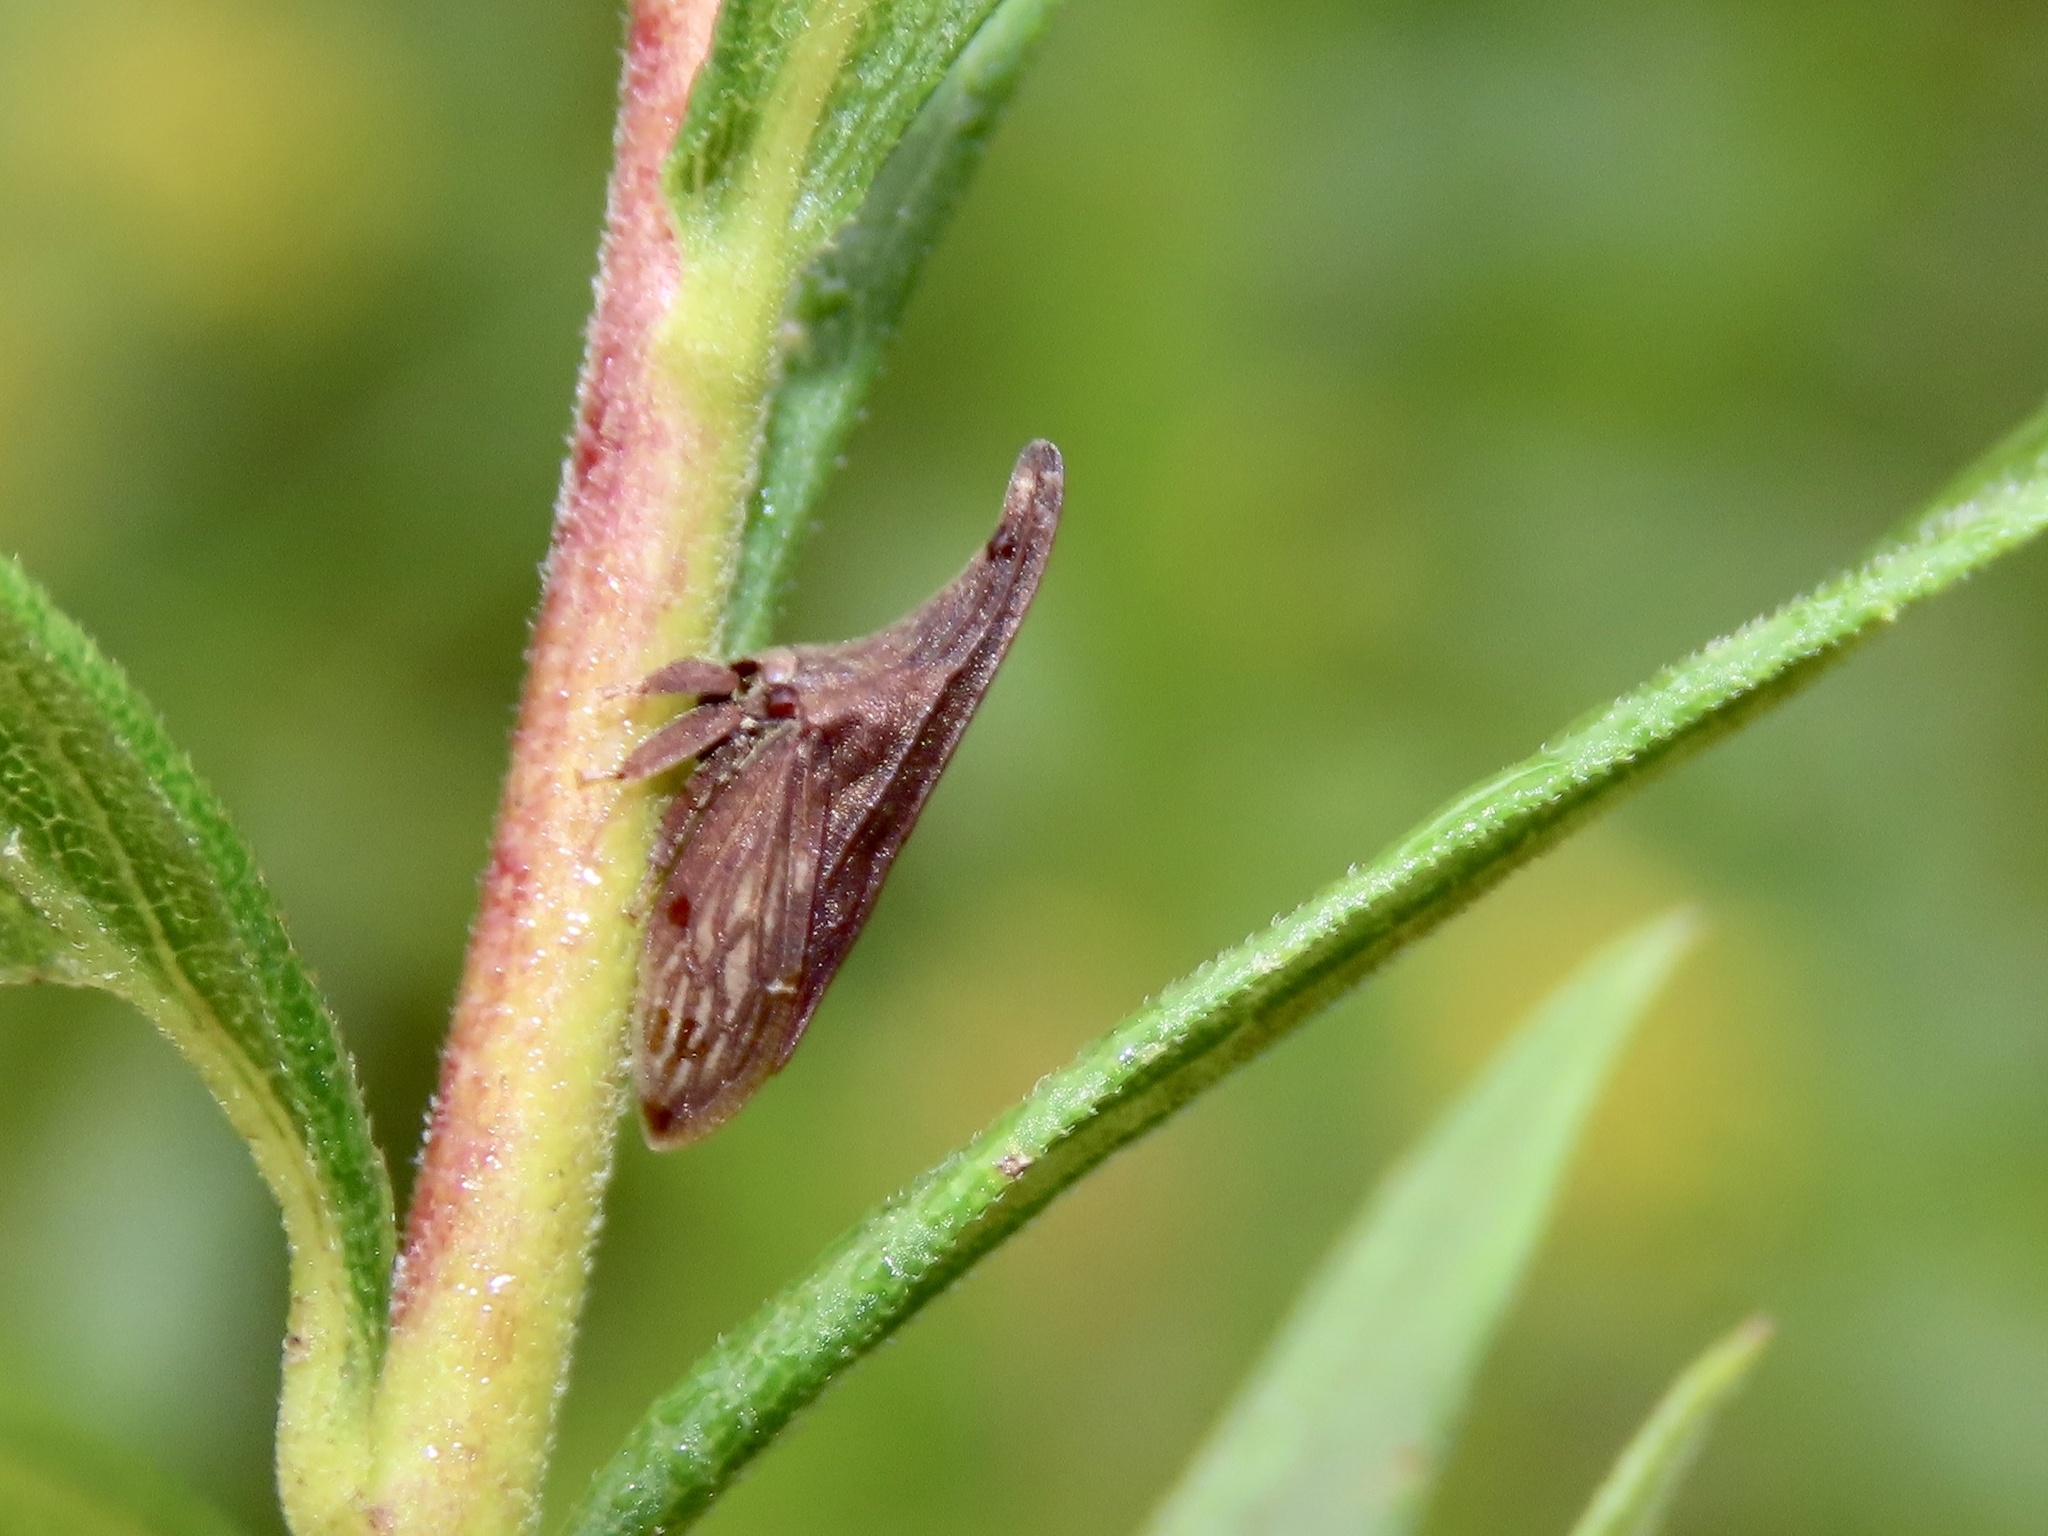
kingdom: Animalia
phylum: Arthropoda
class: Insecta
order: Hemiptera
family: Membracidae
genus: Enchenopa
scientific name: Enchenopa latipes
